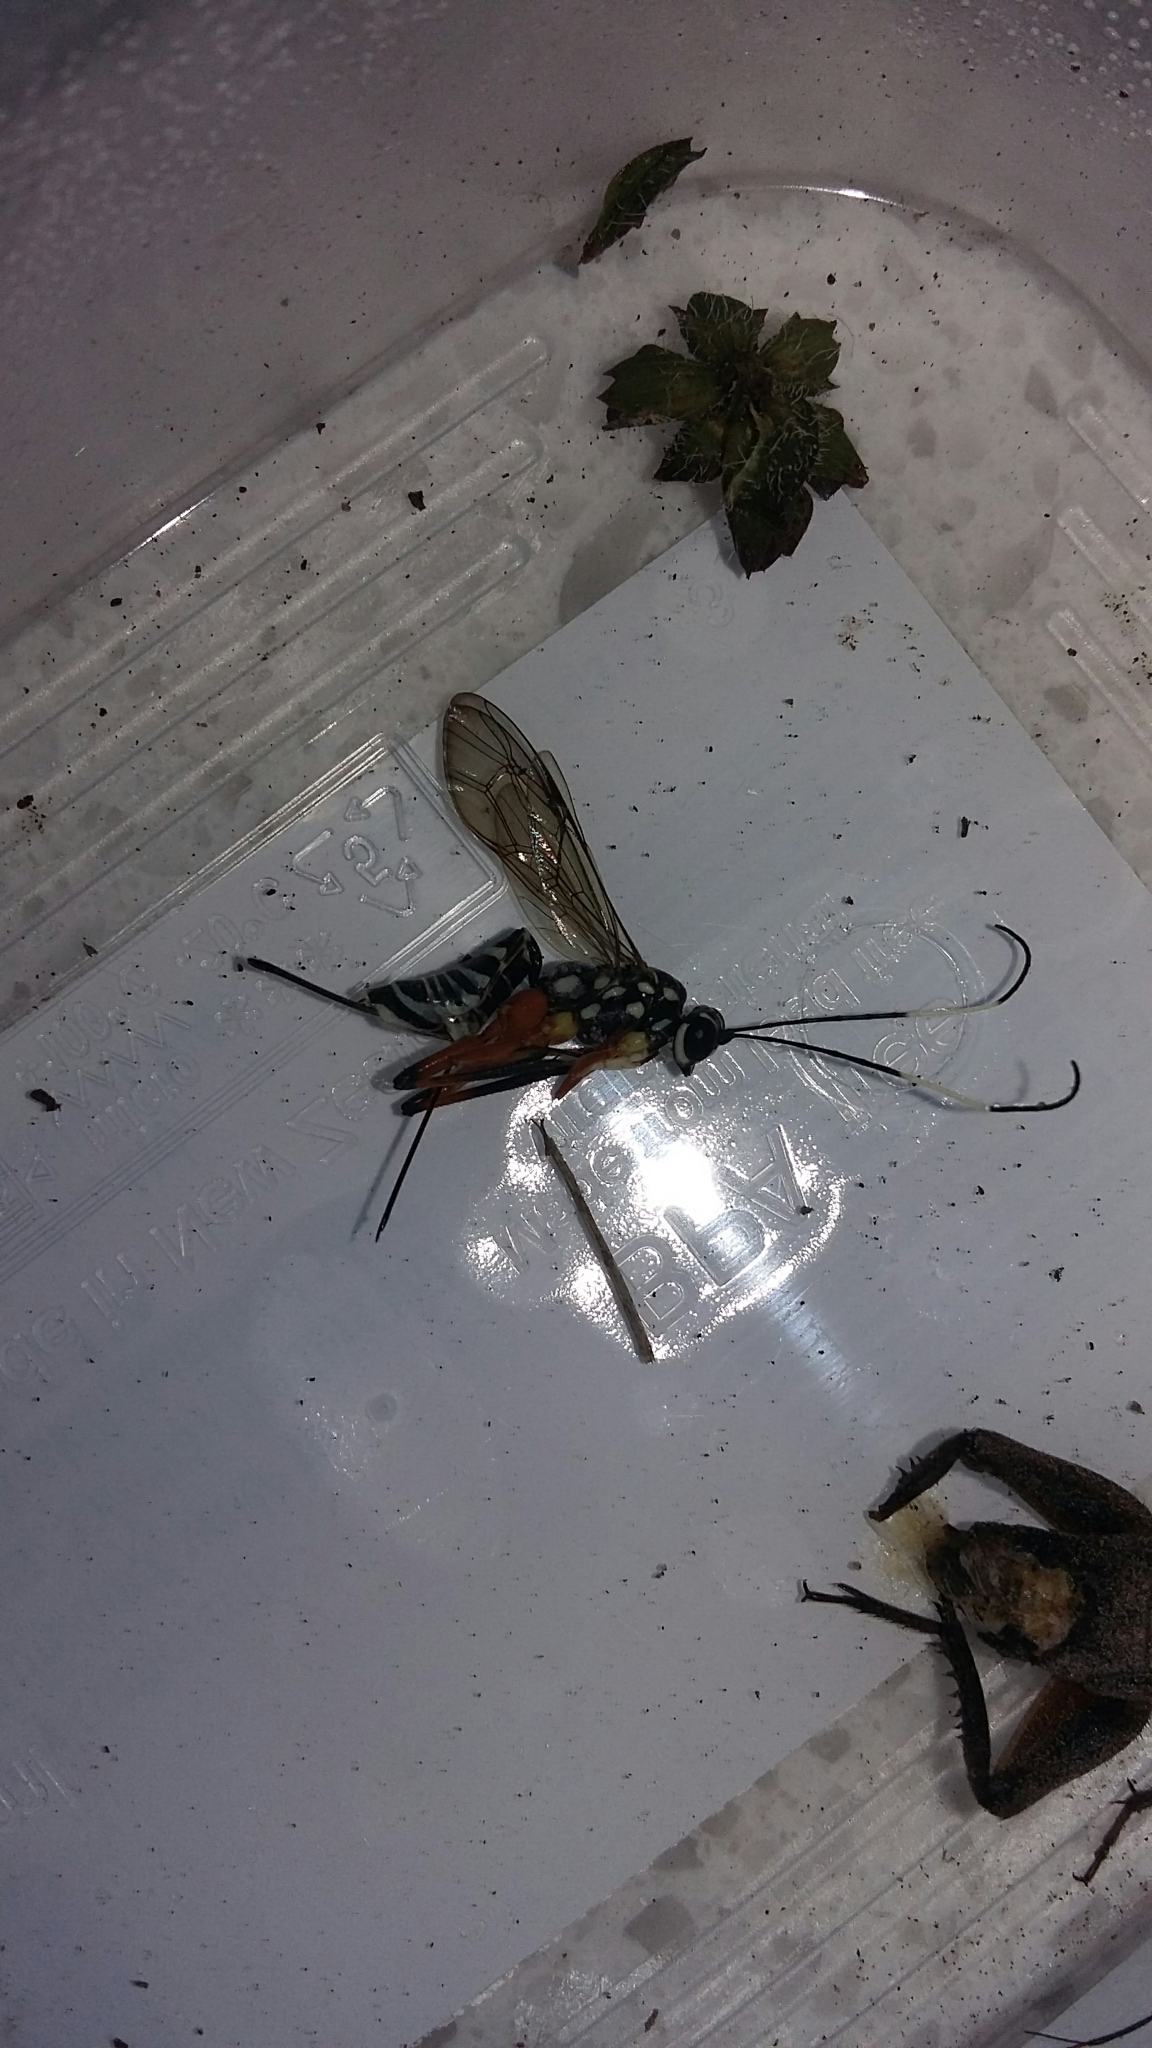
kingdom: Animalia
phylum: Arthropoda
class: Insecta
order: Hymenoptera
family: Ichneumonidae
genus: Xanthocryptus
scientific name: Xanthocryptus novozealandicus
